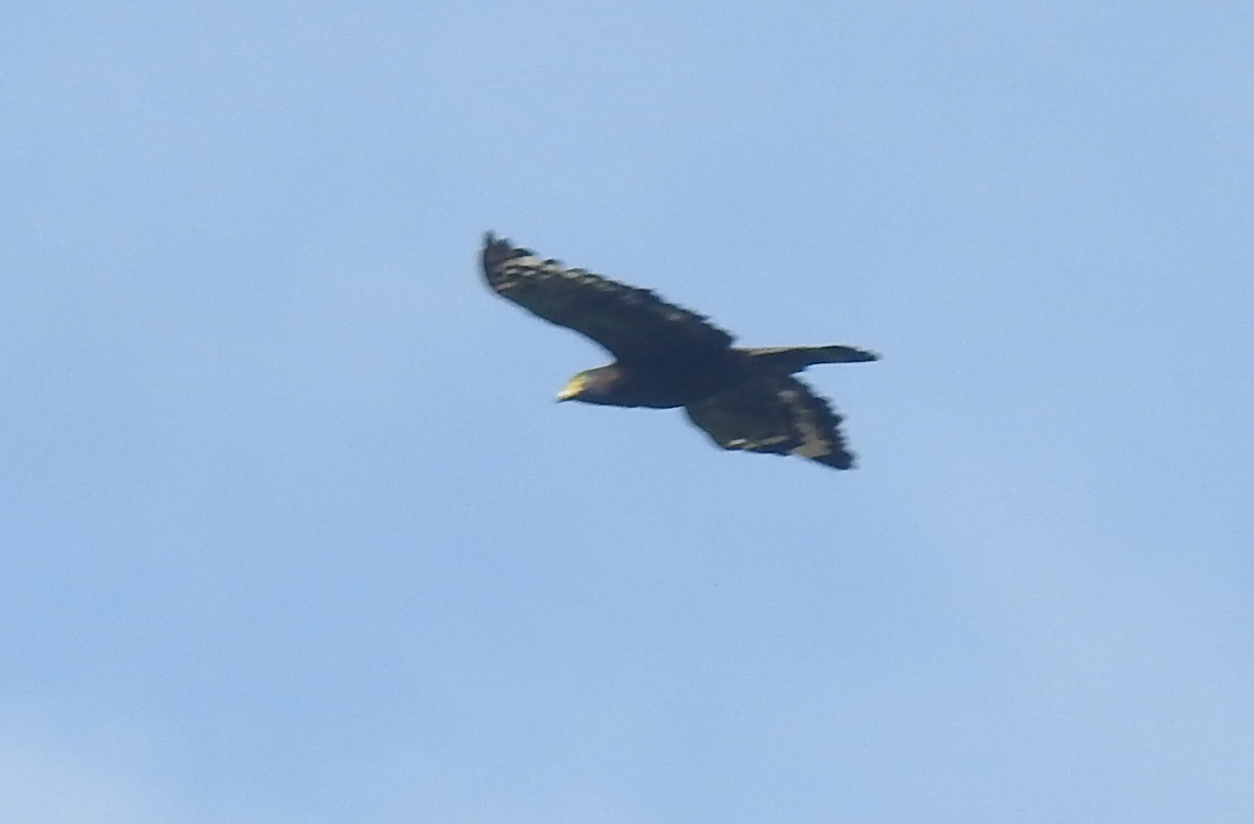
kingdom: Animalia
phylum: Chordata
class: Aves
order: Accipitriformes
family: Accipitridae
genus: Spilornis
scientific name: Spilornis cheela
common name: Crested serpent eagle
